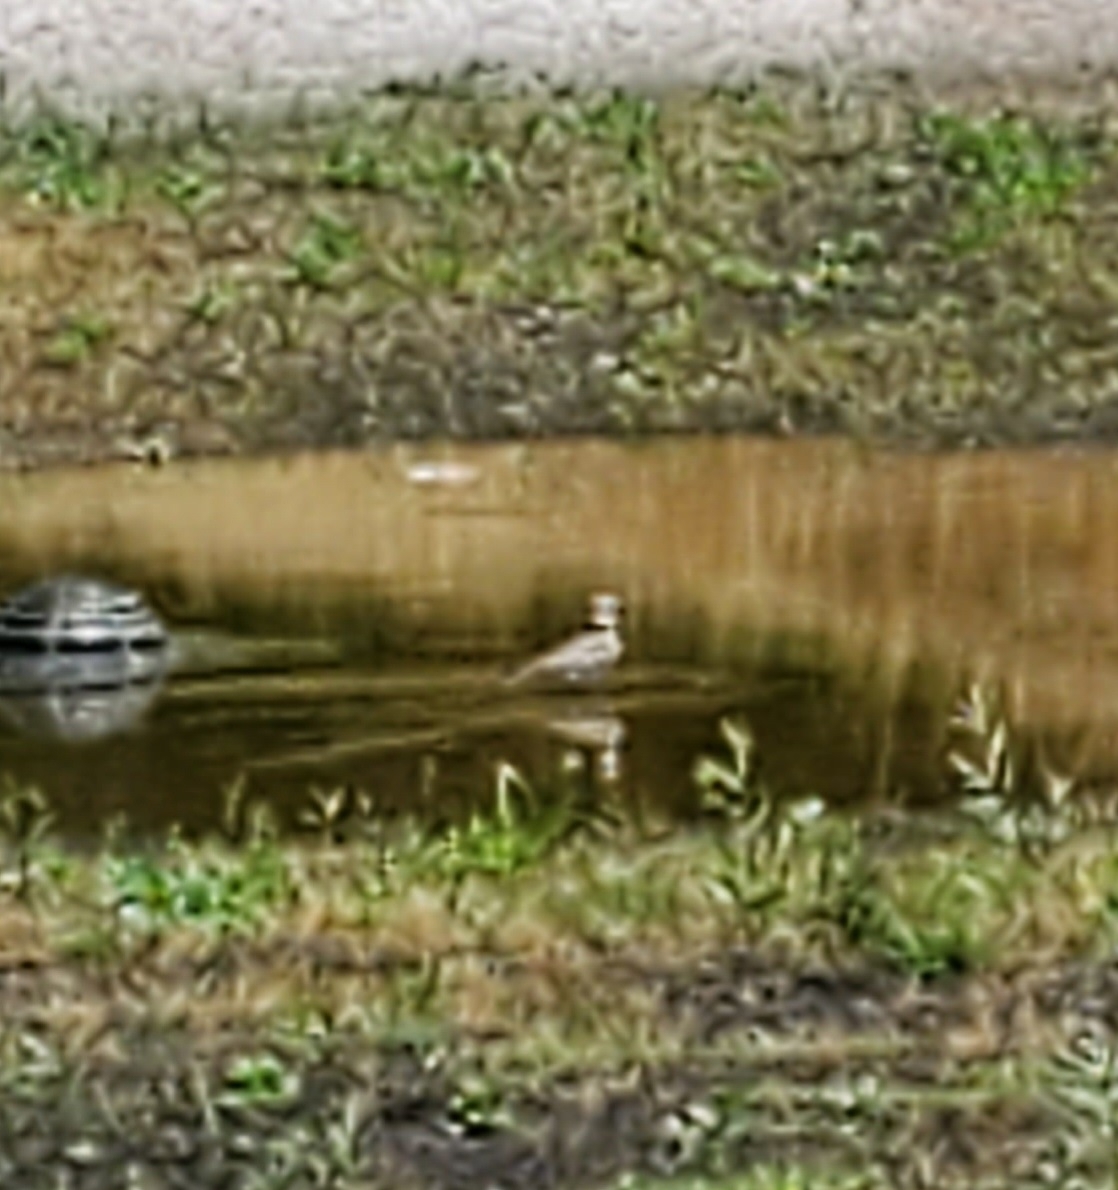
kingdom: Animalia
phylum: Chordata
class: Aves
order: Charadriiformes
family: Charadriidae
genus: Charadrius
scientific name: Charadrius vociferus
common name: Killdeer
